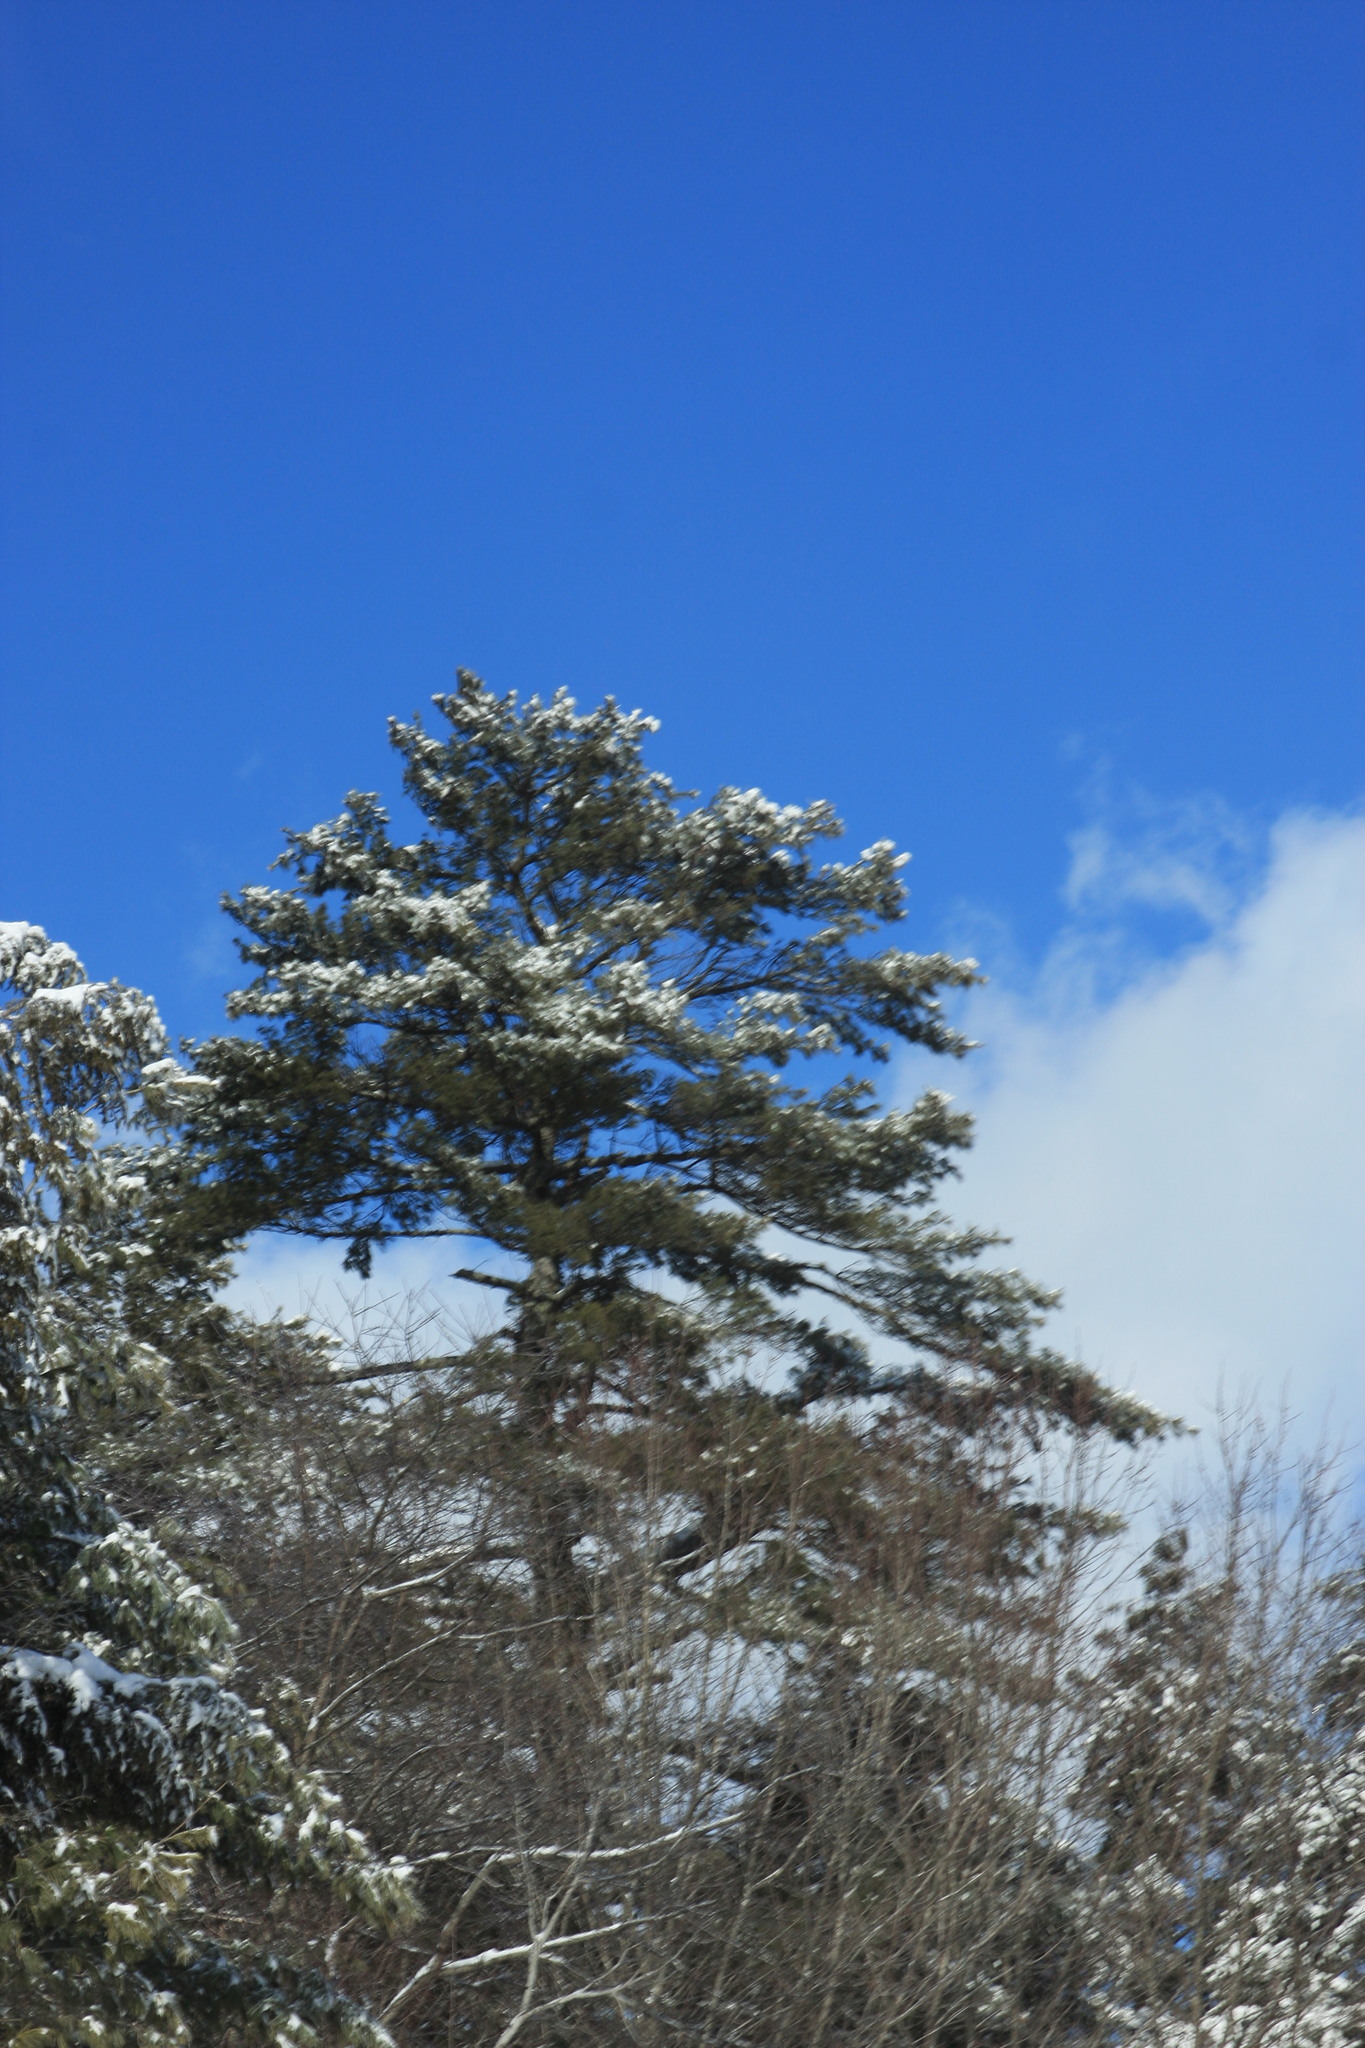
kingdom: Plantae
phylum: Tracheophyta
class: Pinopsida
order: Pinales
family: Pinaceae
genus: Pinus
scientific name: Pinus strobus
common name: Weymouth pine
